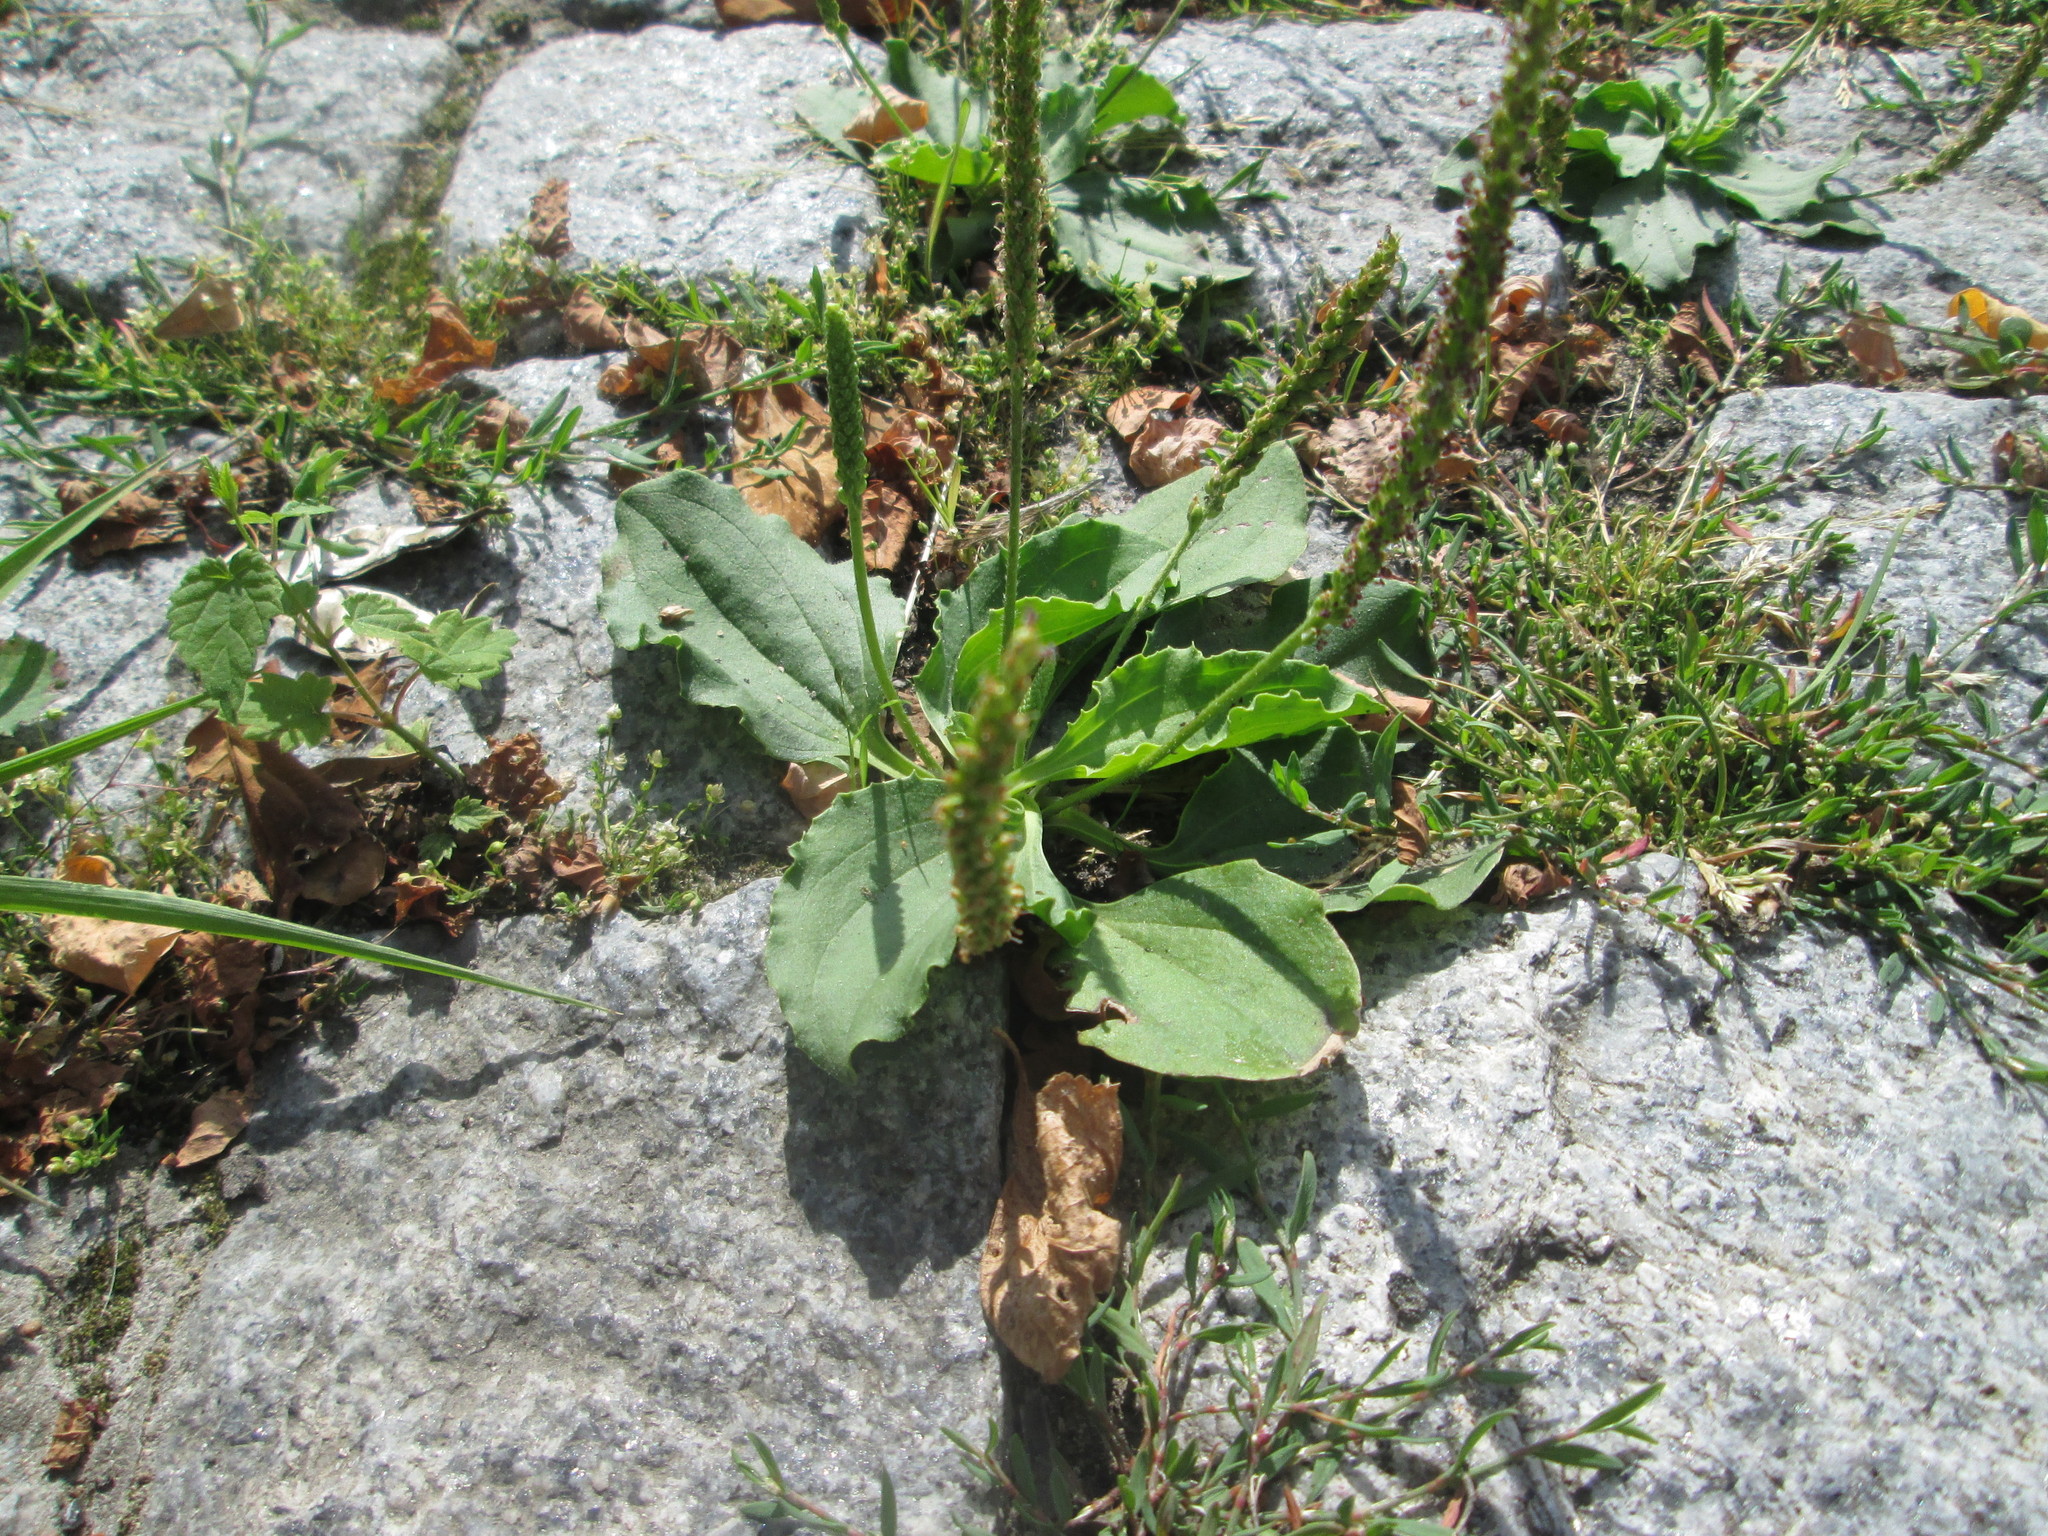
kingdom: Plantae
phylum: Tracheophyta
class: Magnoliopsida
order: Lamiales
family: Plantaginaceae
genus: Plantago
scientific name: Plantago major
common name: Common plantain
